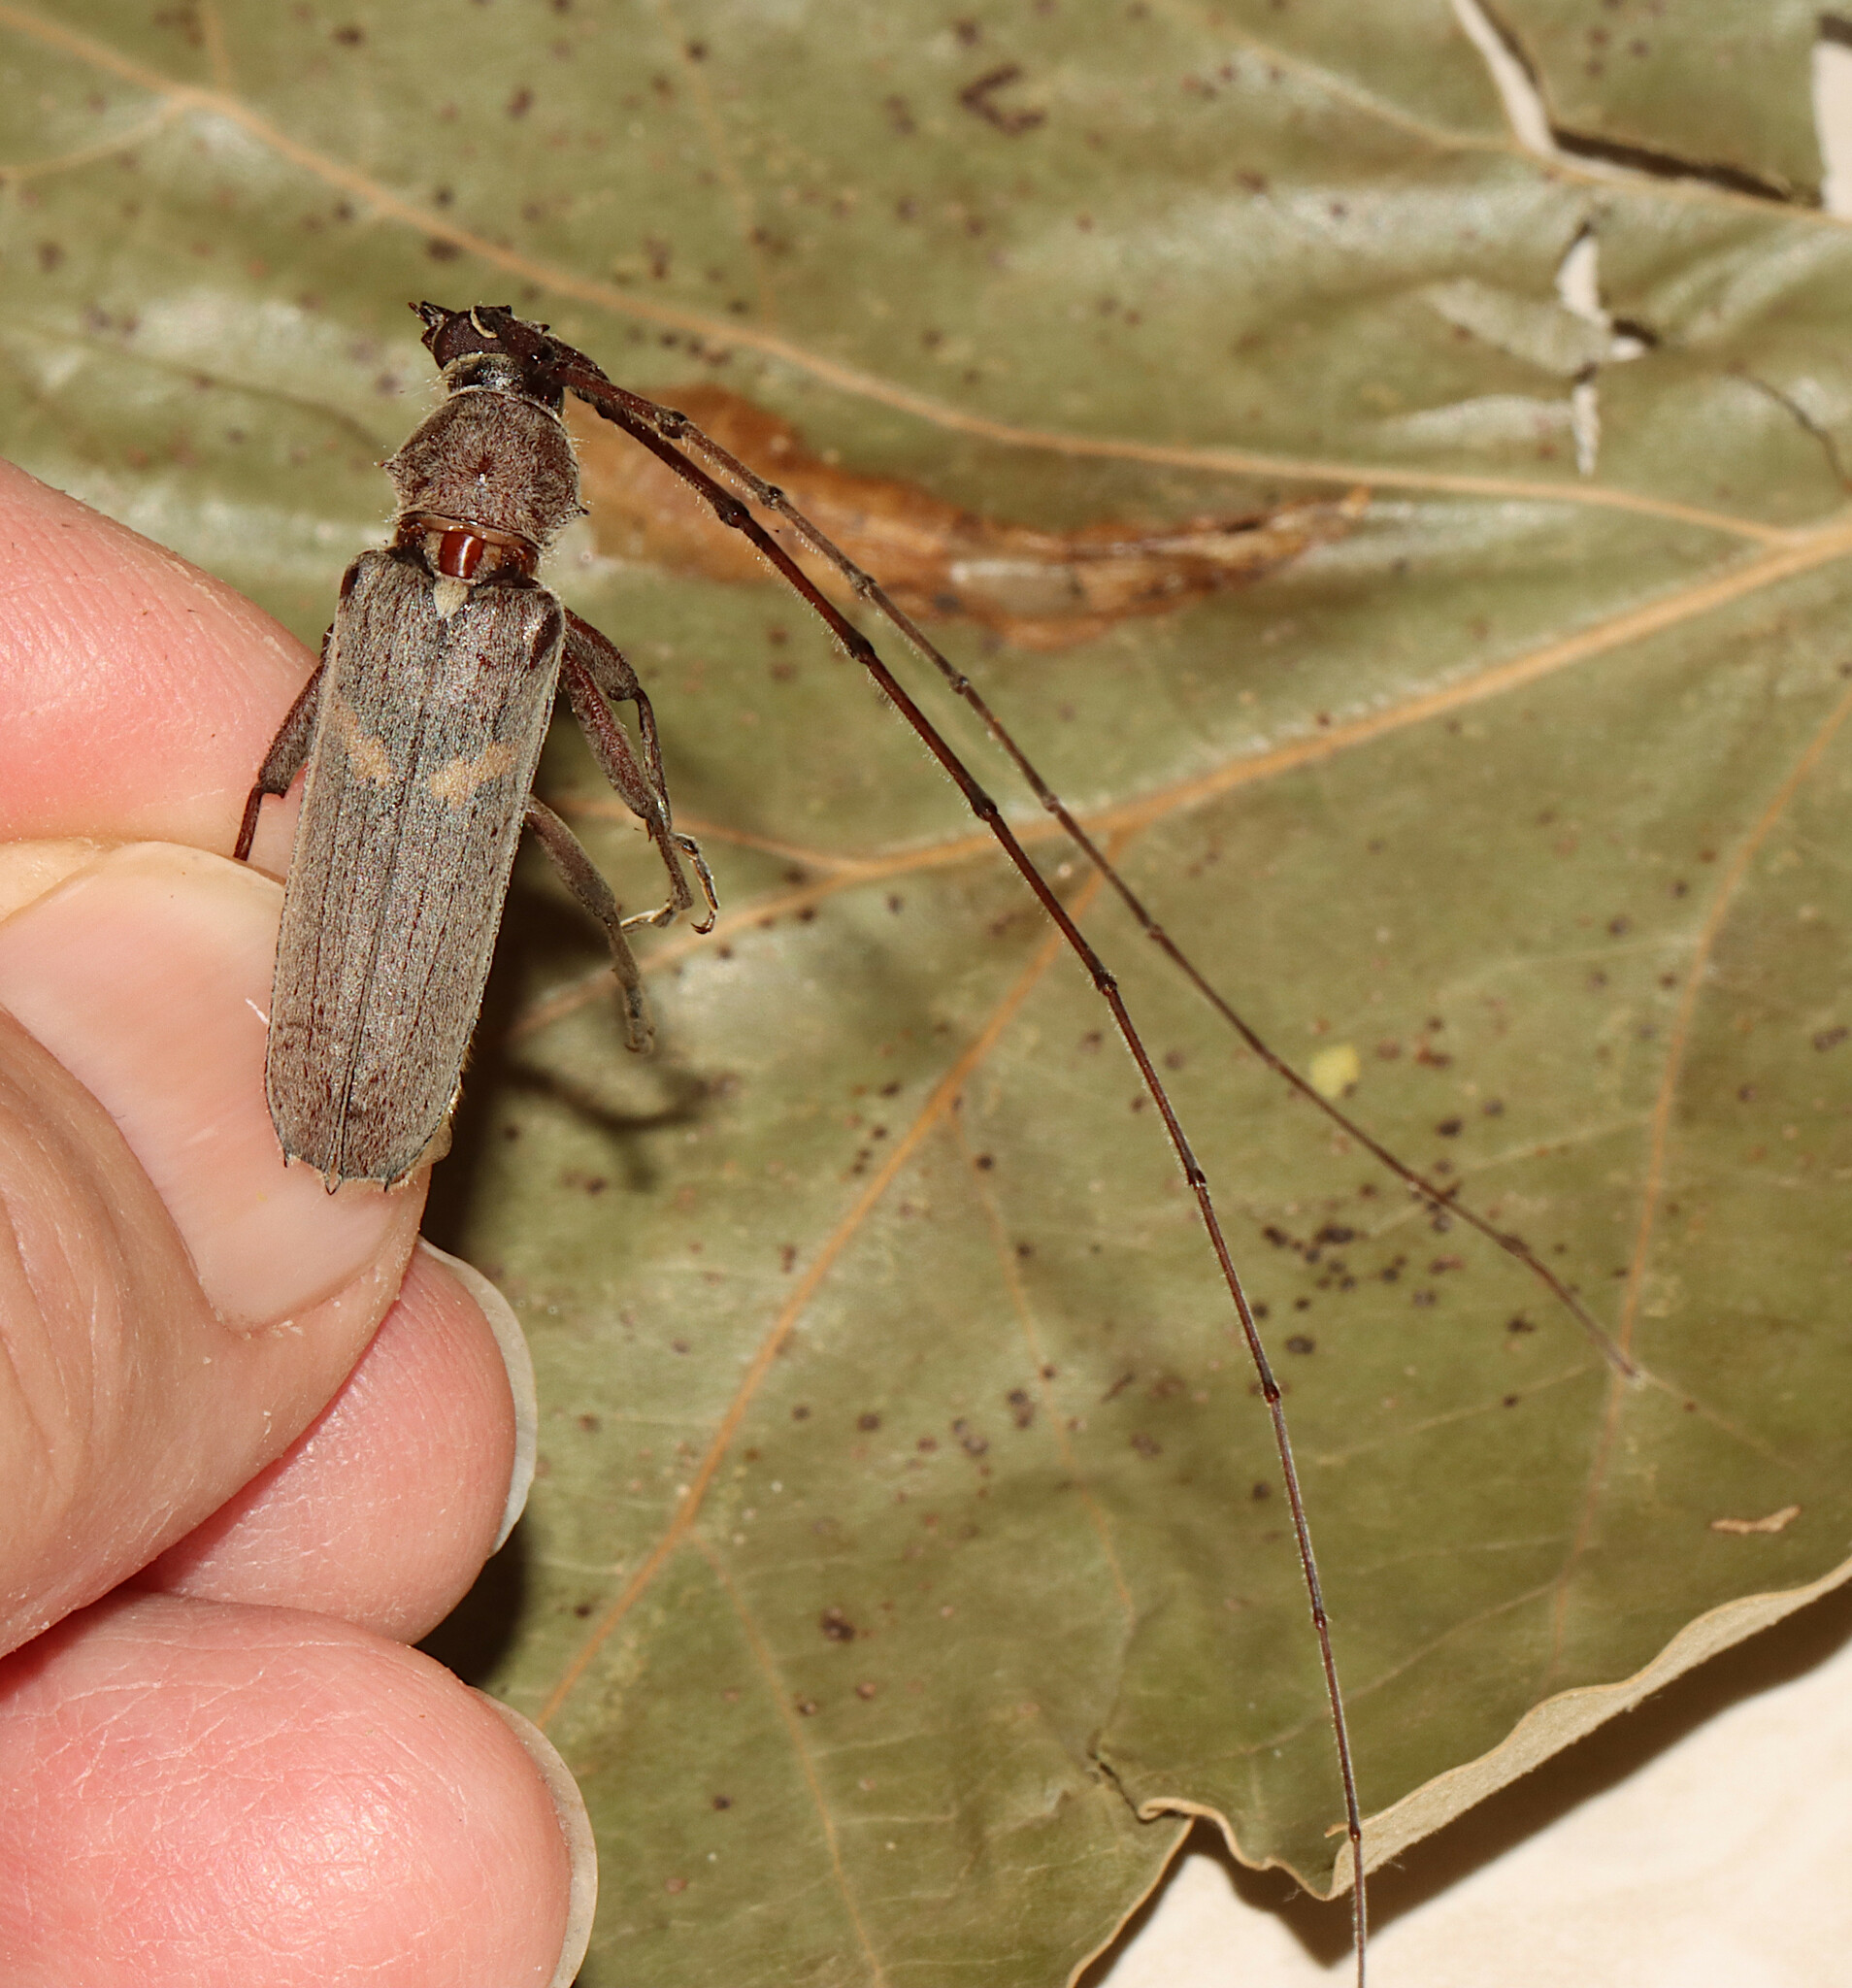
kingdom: Animalia
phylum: Arthropoda
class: Insecta
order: Coleoptera
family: Cerambycidae
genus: Knulliana
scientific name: Knulliana cincta
